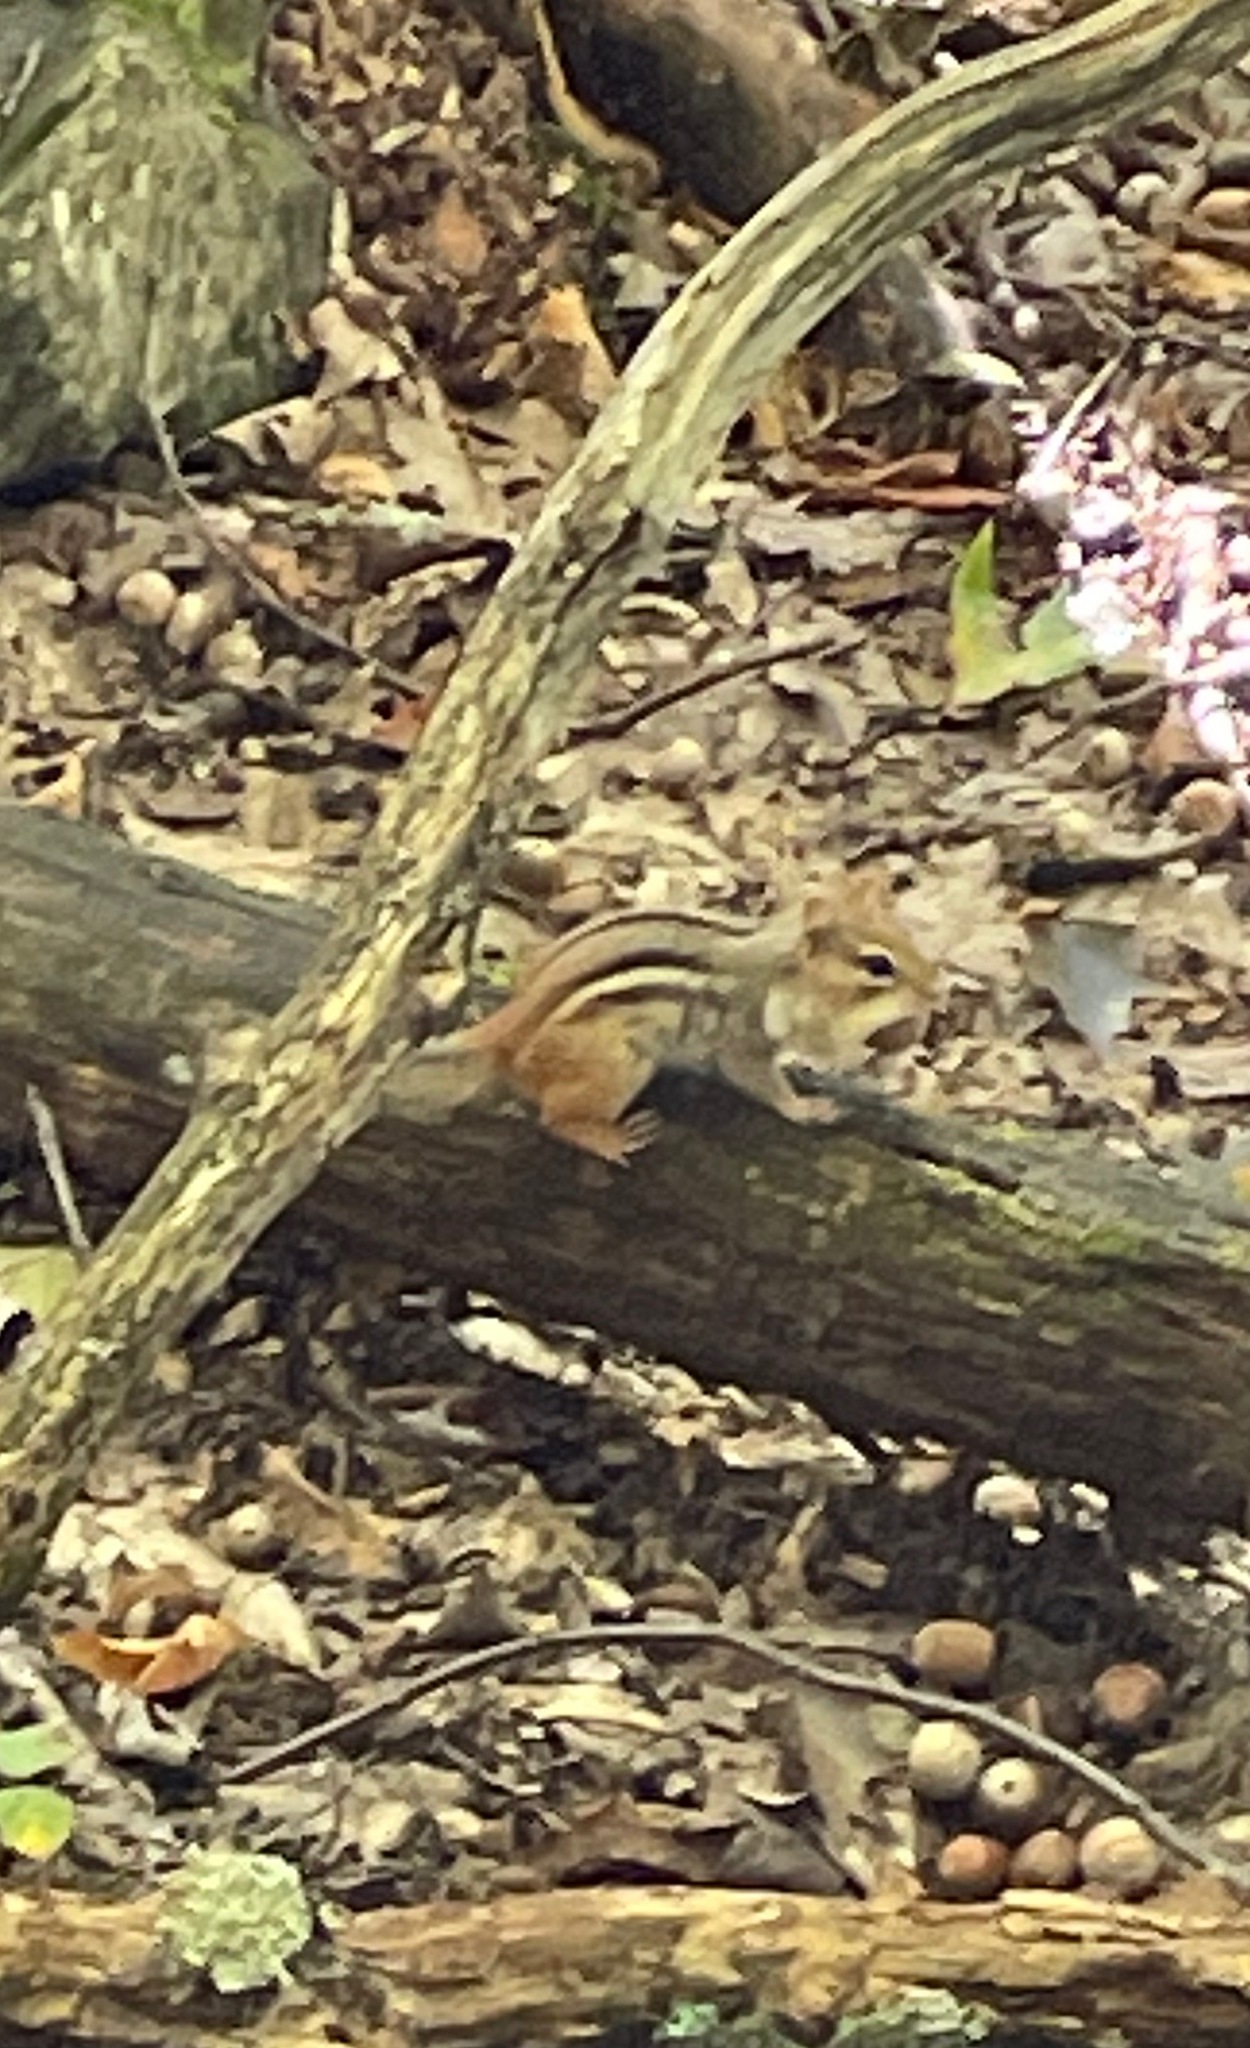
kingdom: Animalia
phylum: Chordata
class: Mammalia
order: Rodentia
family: Sciuridae
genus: Tamias
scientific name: Tamias striatus
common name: Eastern chipmunk
